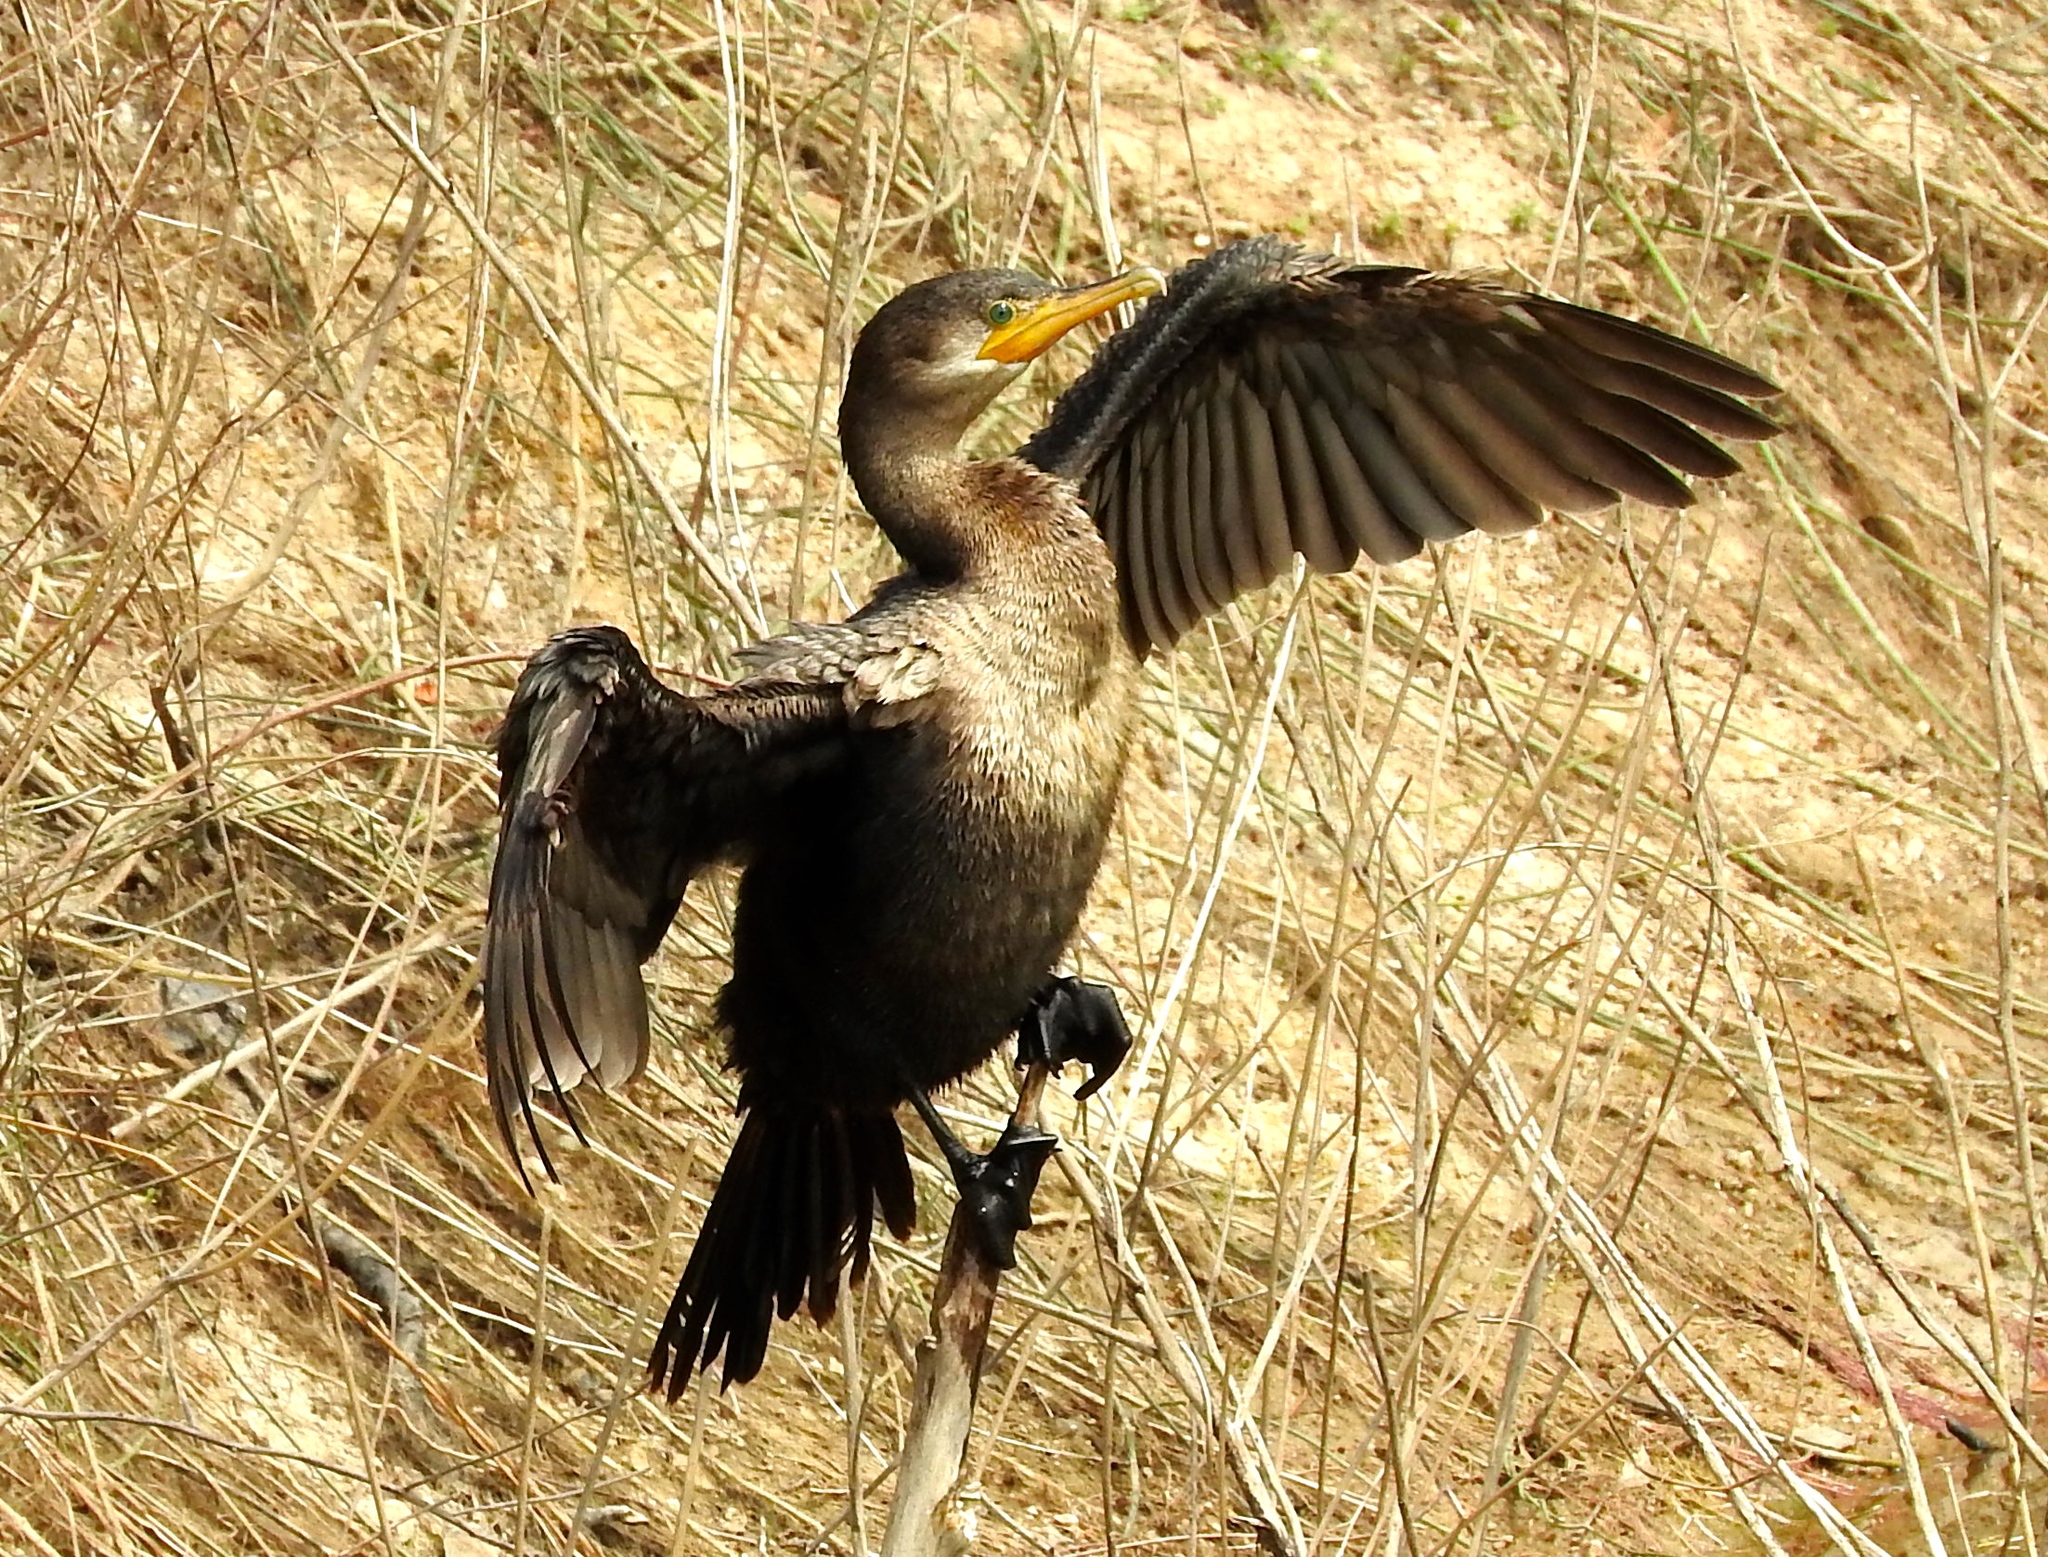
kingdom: Animalia
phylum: Chordata
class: Aves
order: Suliformes
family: Phalacrocoracidae
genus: Phalacrocorax
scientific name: Phalacrocorax brasilianus
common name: Neotropic cormorant
